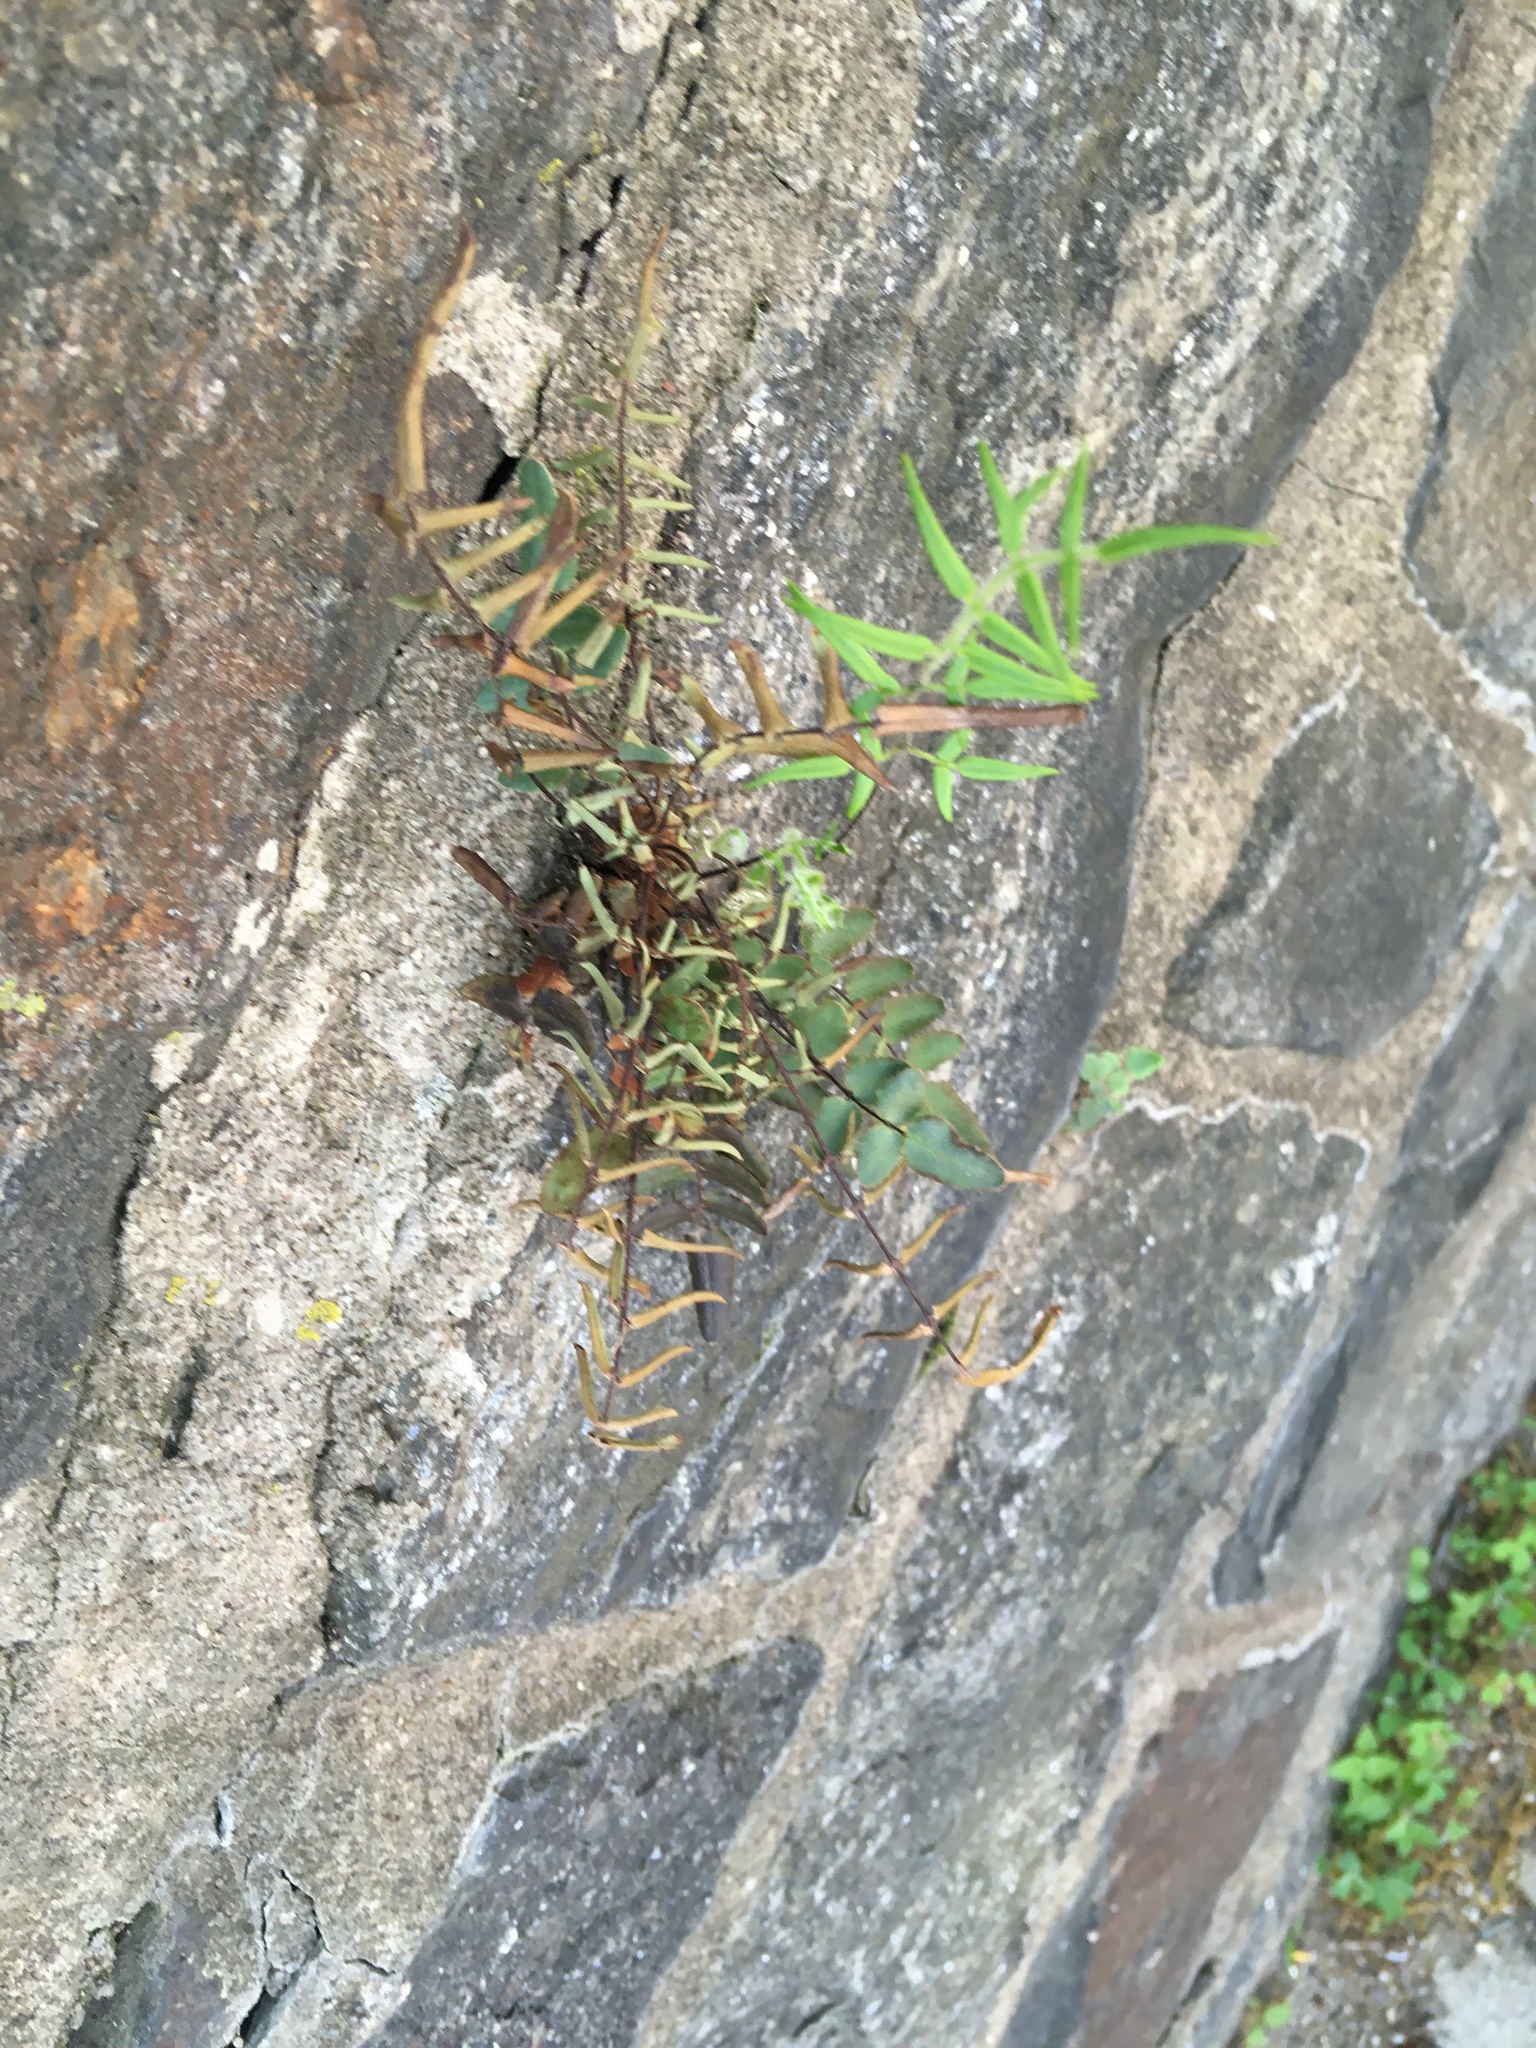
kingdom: Plantae
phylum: Tracheophyta
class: Polypodiopsida
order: Polypodiales
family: Pteridaceae
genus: Pellaea
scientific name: Pellaea atropurpurea
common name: Hairy cliffbrake
